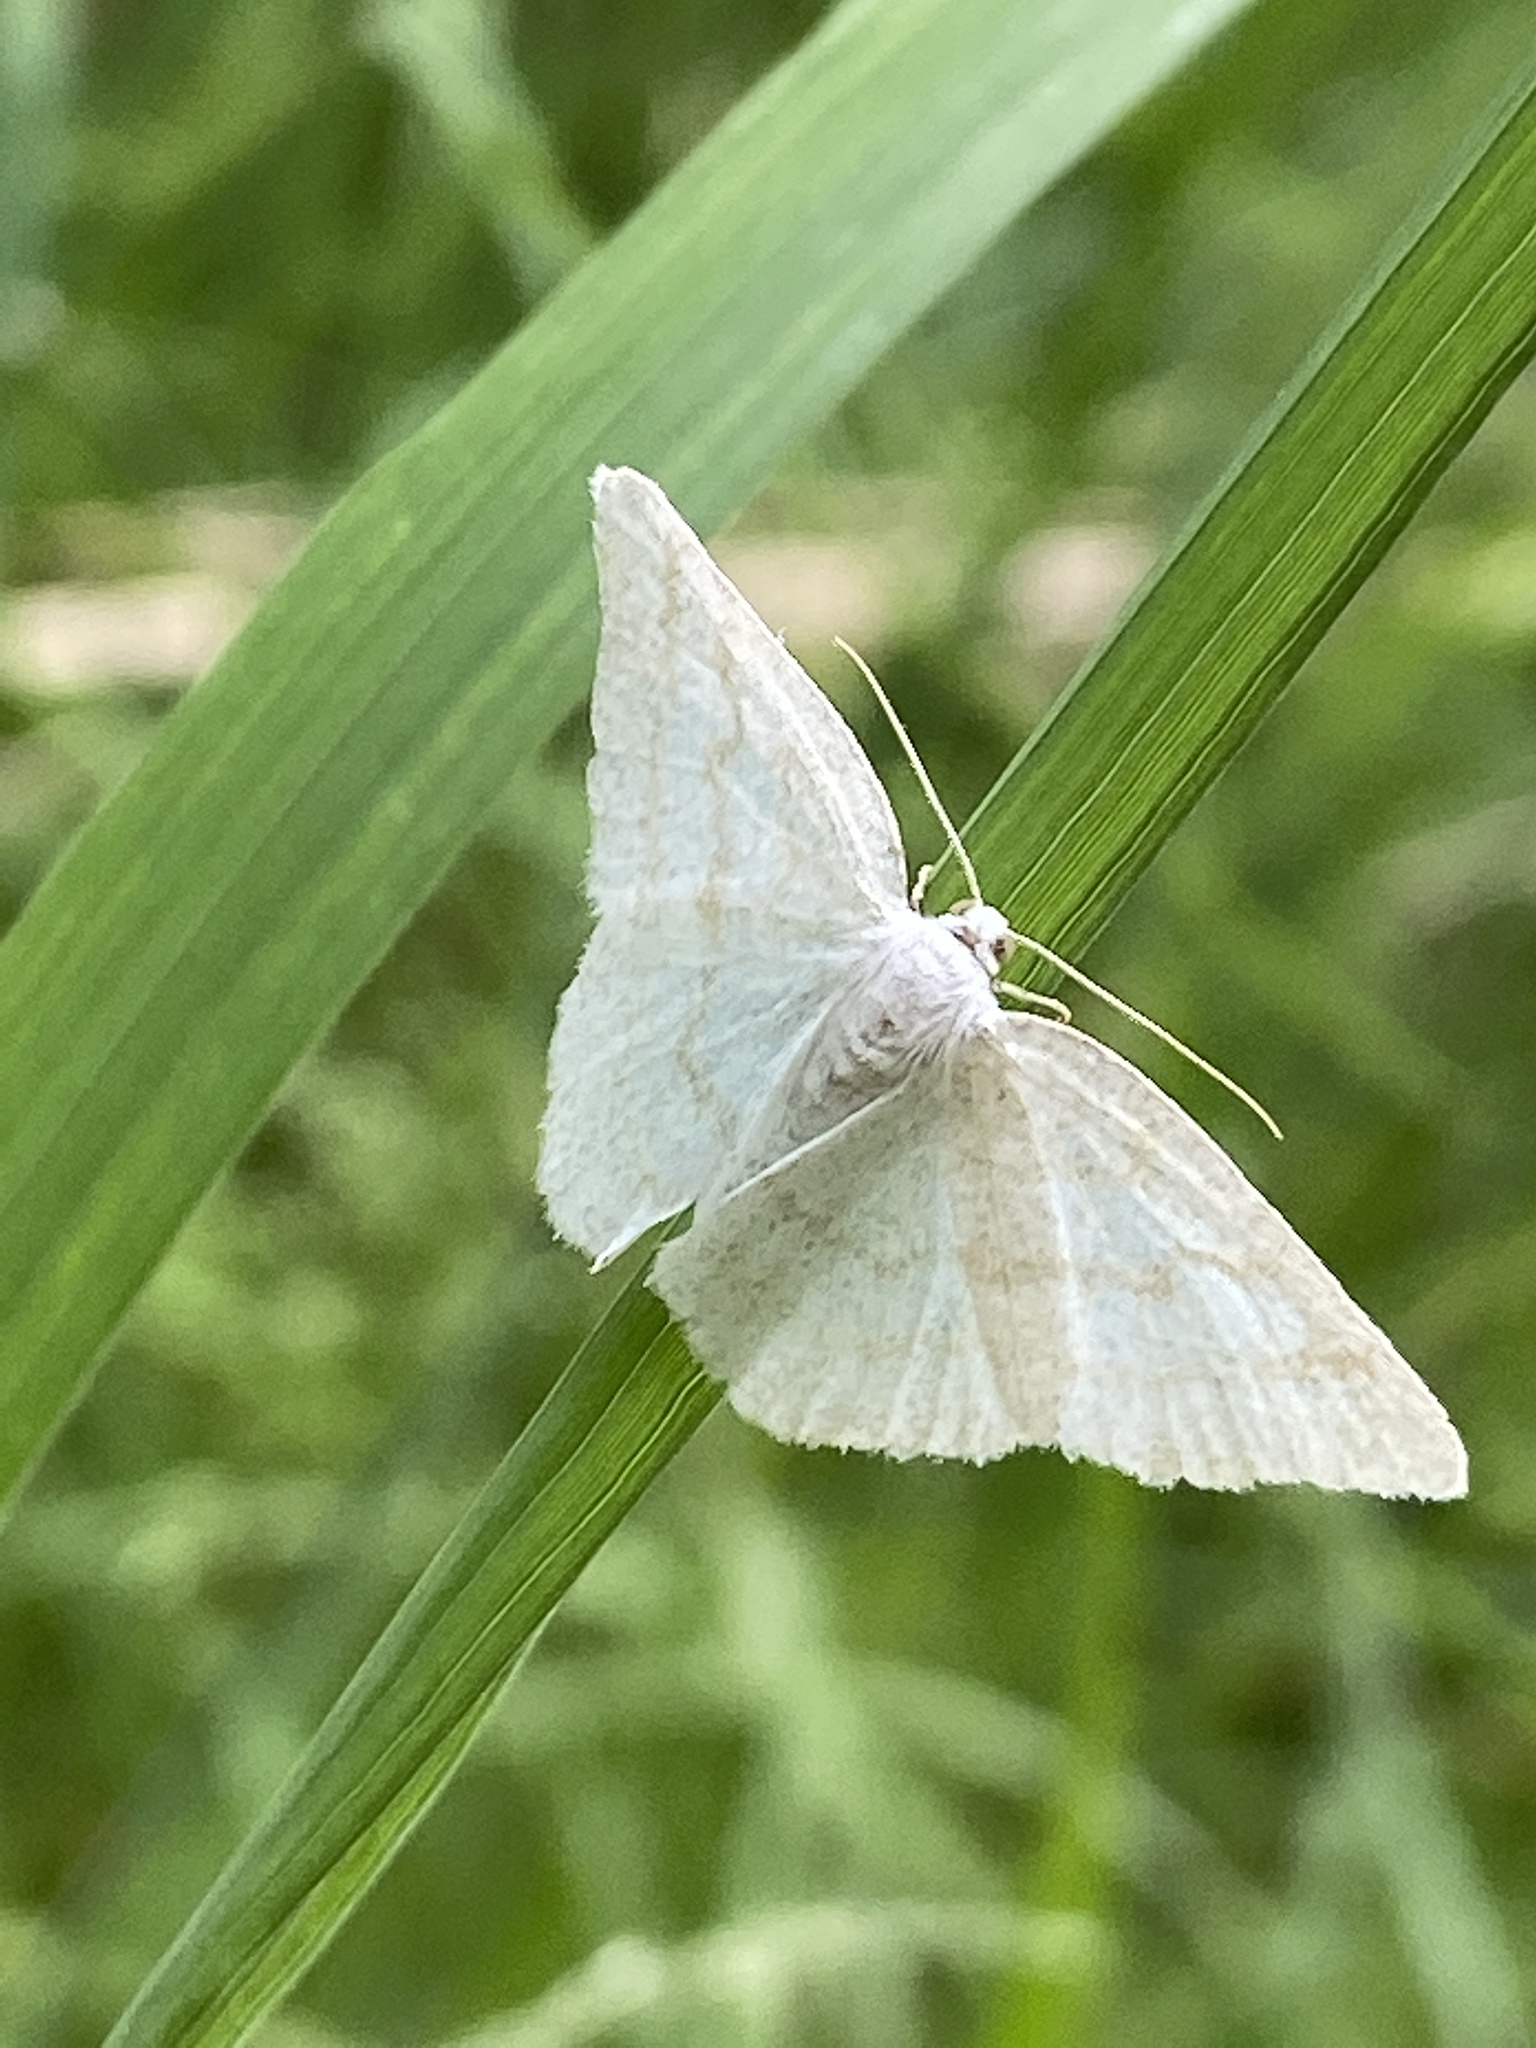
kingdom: Animalia
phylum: Arthropoda
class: Insecta
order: Lepidoptera
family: Geometridae
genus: Cabera
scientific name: Cabera pusaria
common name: Common white wave
